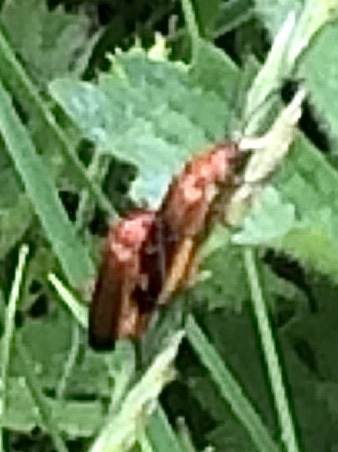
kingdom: Animalia
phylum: Arthropoda
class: Insecta
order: Coleoptera
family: Cantharidae
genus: Rhagonycha
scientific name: Rhagonycha fulva
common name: Common red soldier beetle
